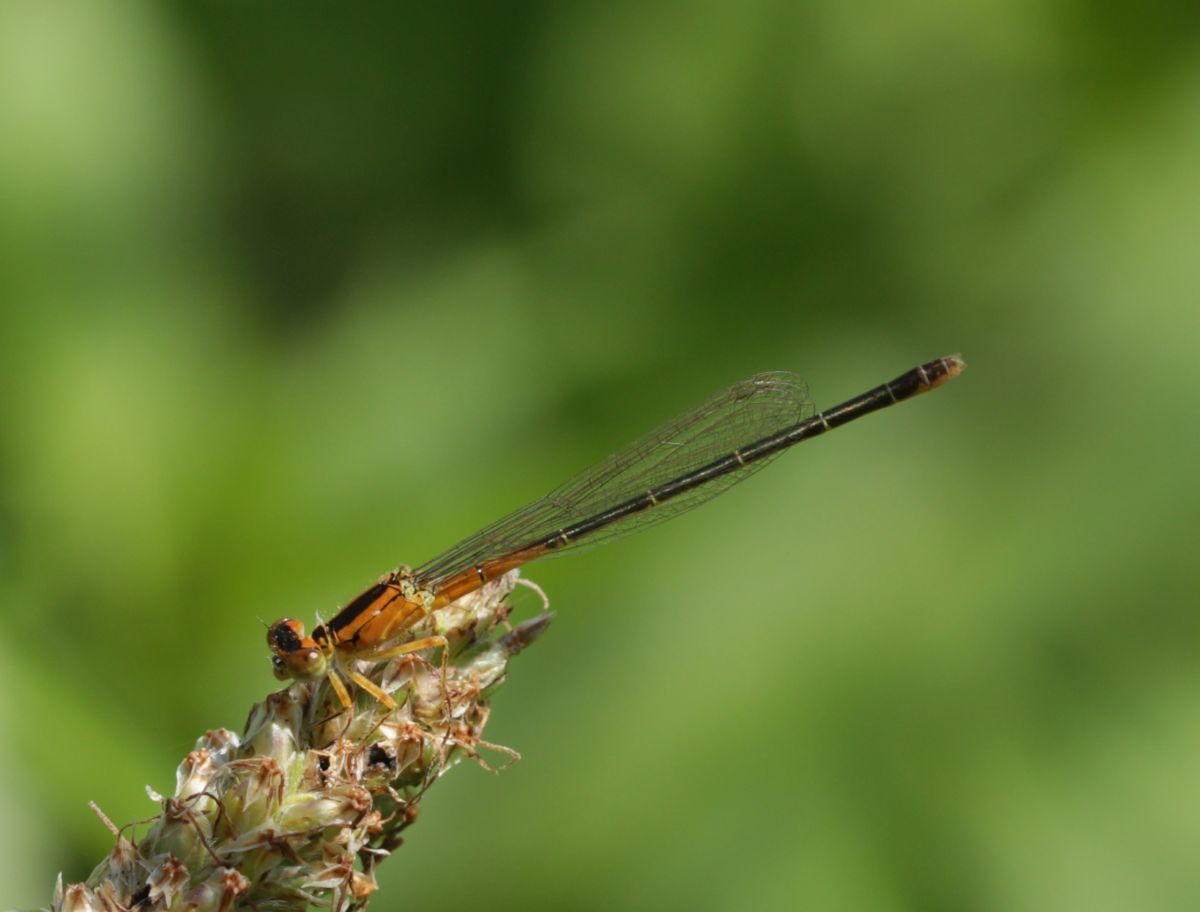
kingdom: Animalia
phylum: Arthropoda
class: Insecta
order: Odonata
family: Coenagrionidae
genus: Ischnura
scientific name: Ischnura verticalis
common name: Eastern forktail
